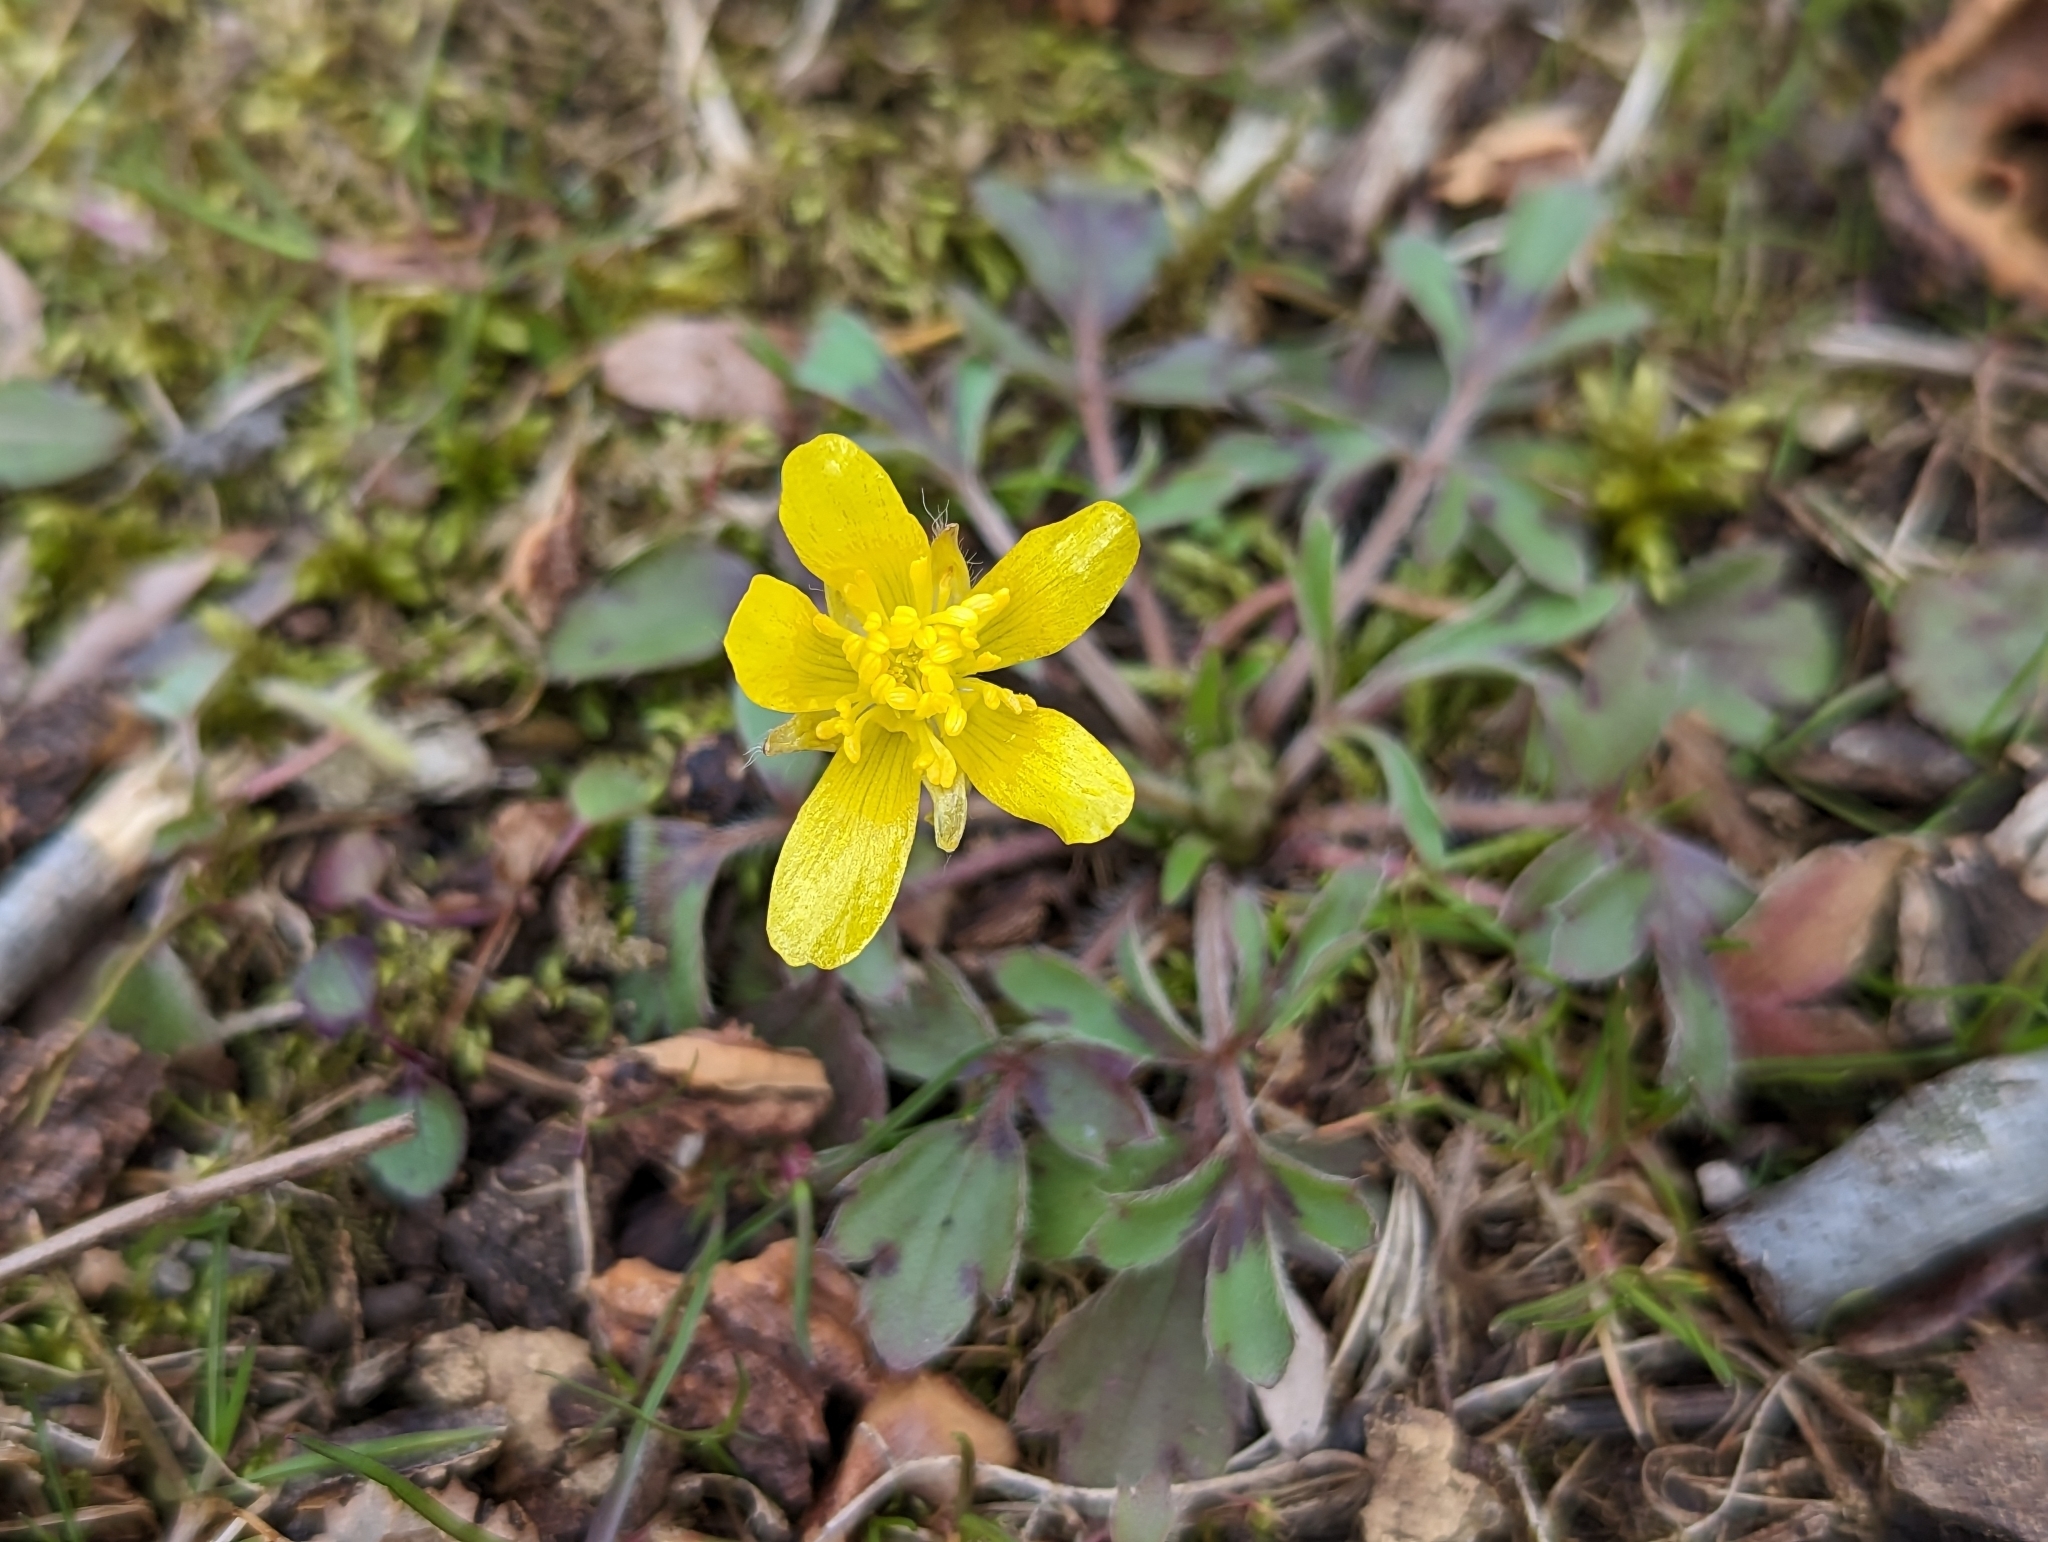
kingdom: Plantae
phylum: Tracheophyta
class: Magnoliopsida
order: Ranunculales
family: Ranunculaceae
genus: Ranunculus
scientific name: Ranunculus fascicularis
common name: Early buttercup
